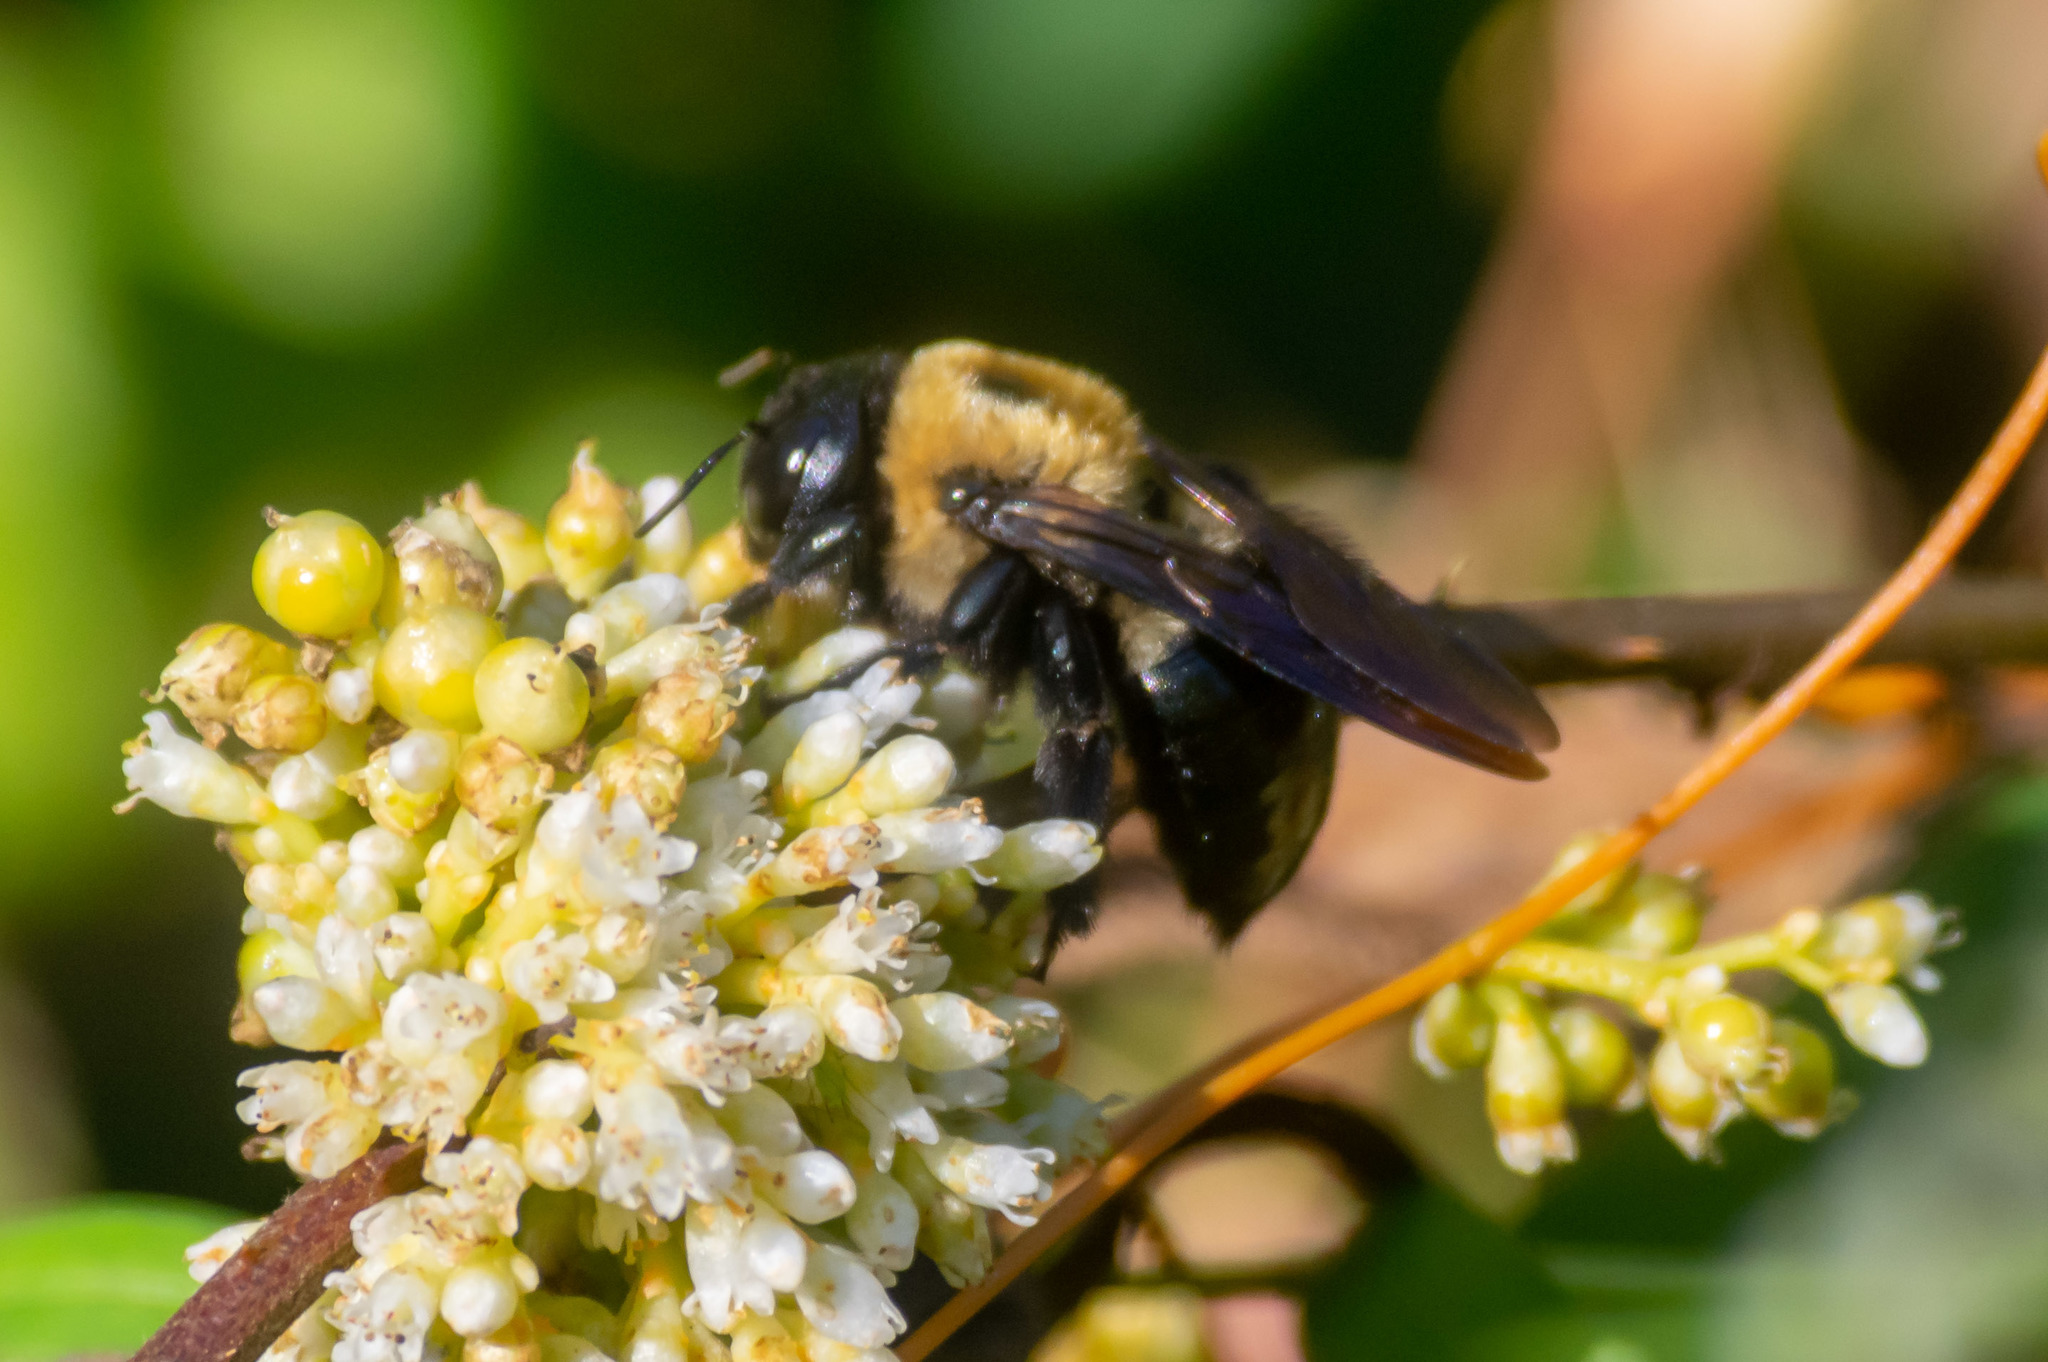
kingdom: Animalia
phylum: Arthropoda
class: Insecta
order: Hymenoptera
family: Apidae
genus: Xylocopa
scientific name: Xylocopa virginica
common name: Carpenter bee
